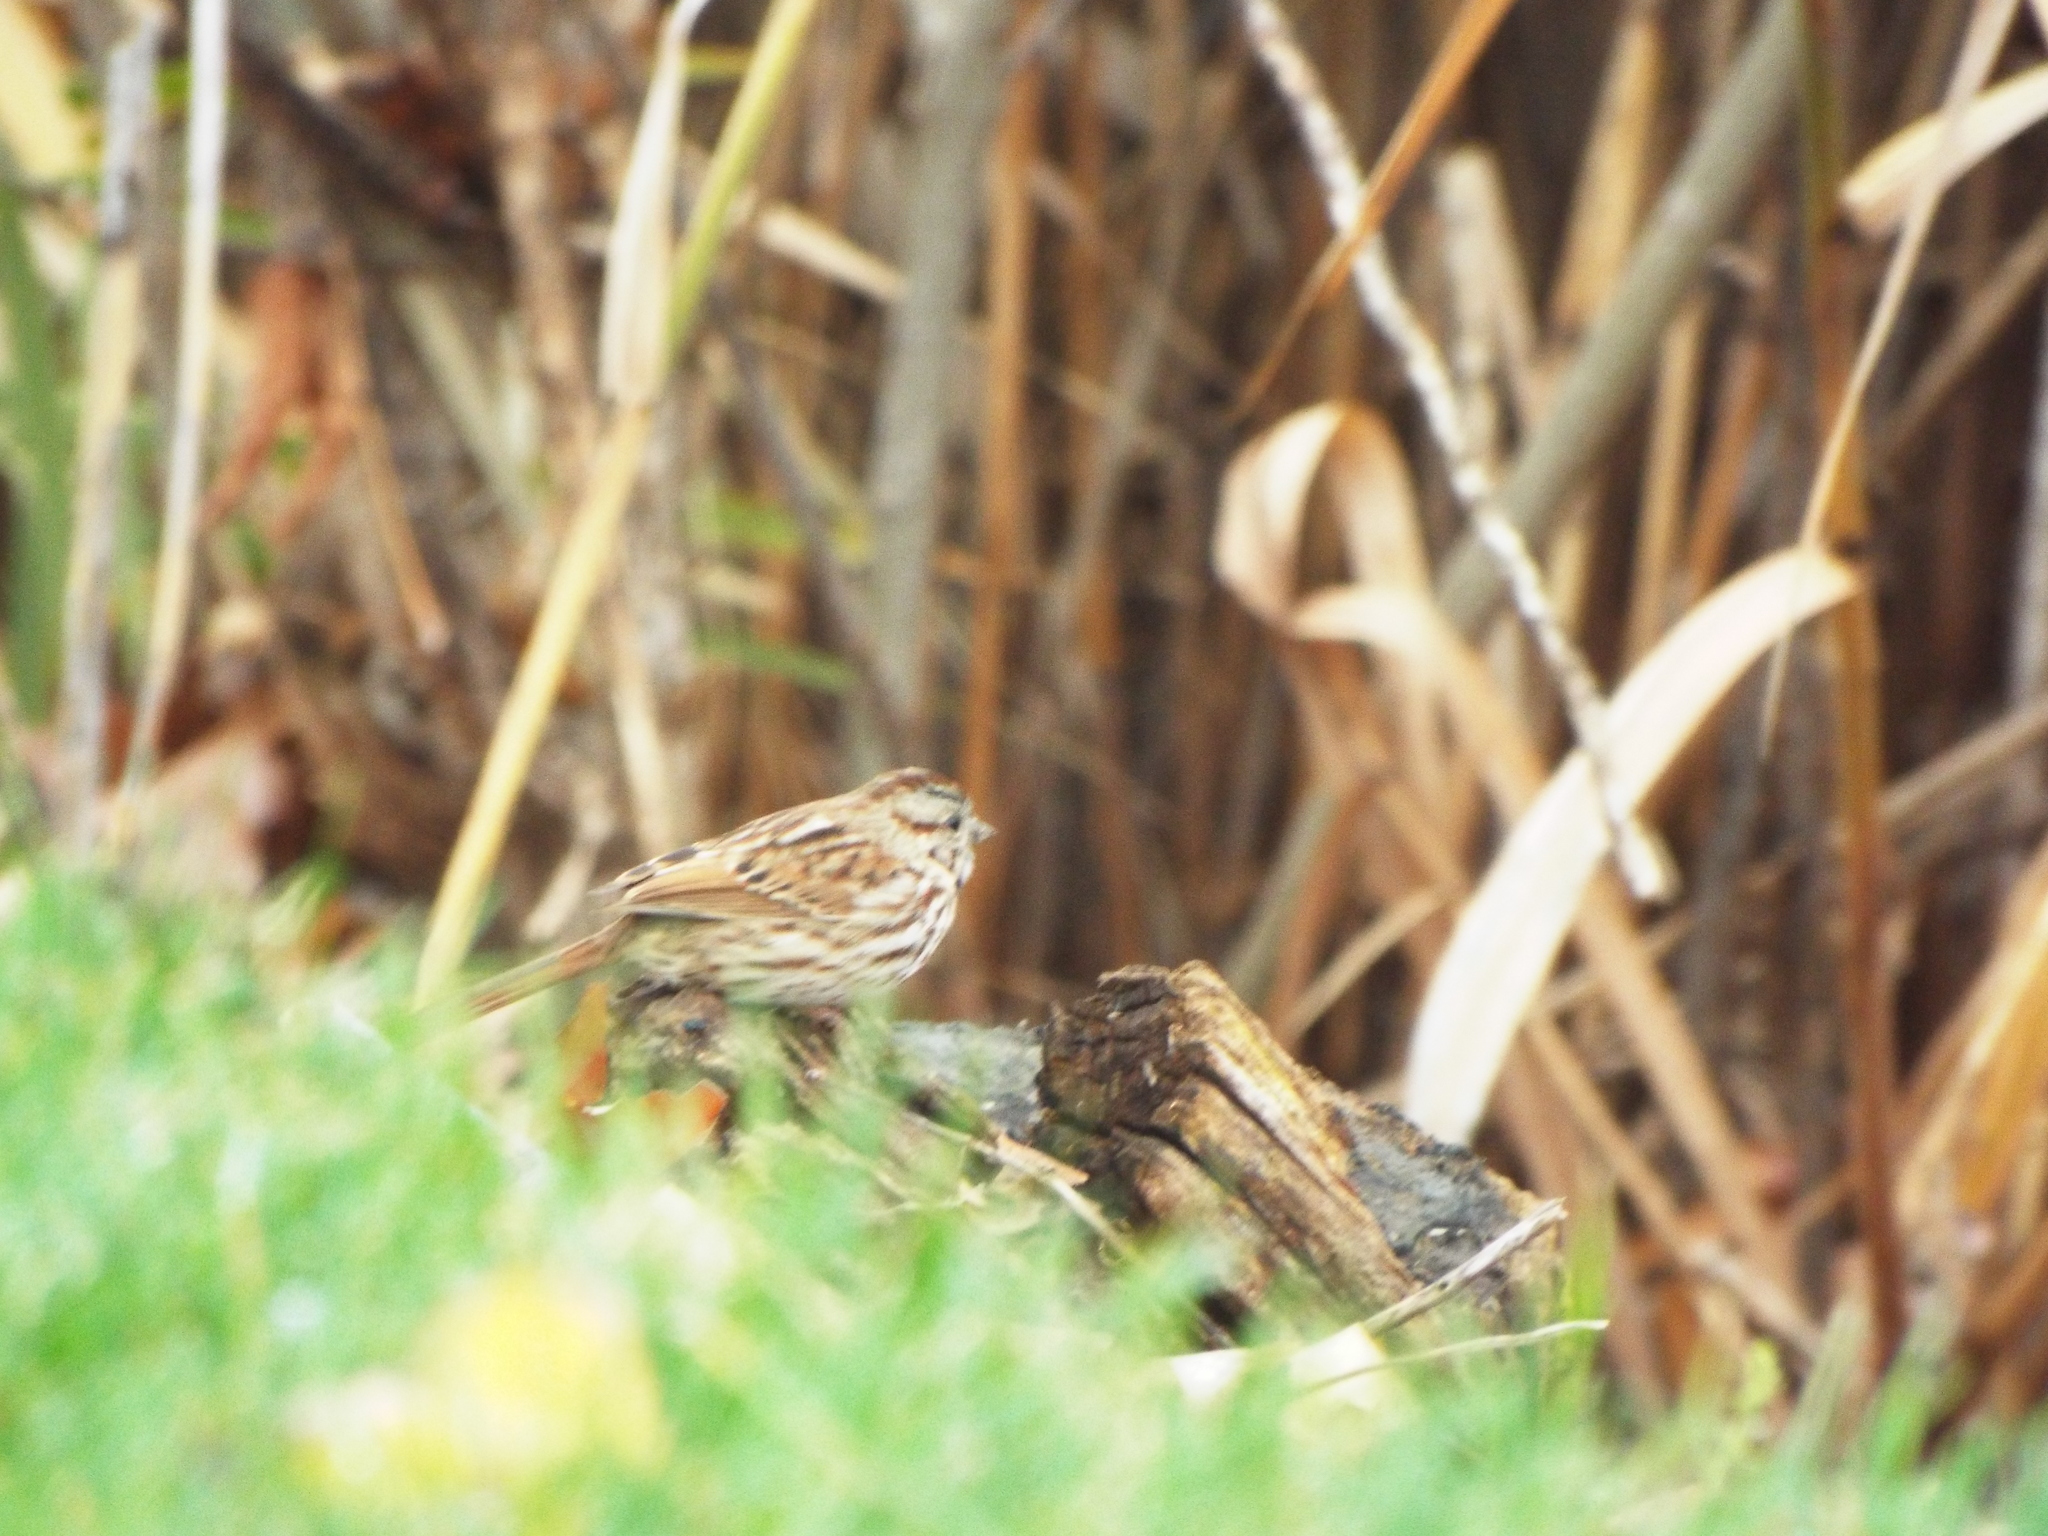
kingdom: Animalia
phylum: Chordata
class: Aves
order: Passeriformes
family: Passerellidae
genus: Melospiza
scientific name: Melospiza melodia
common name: Song sparrow
